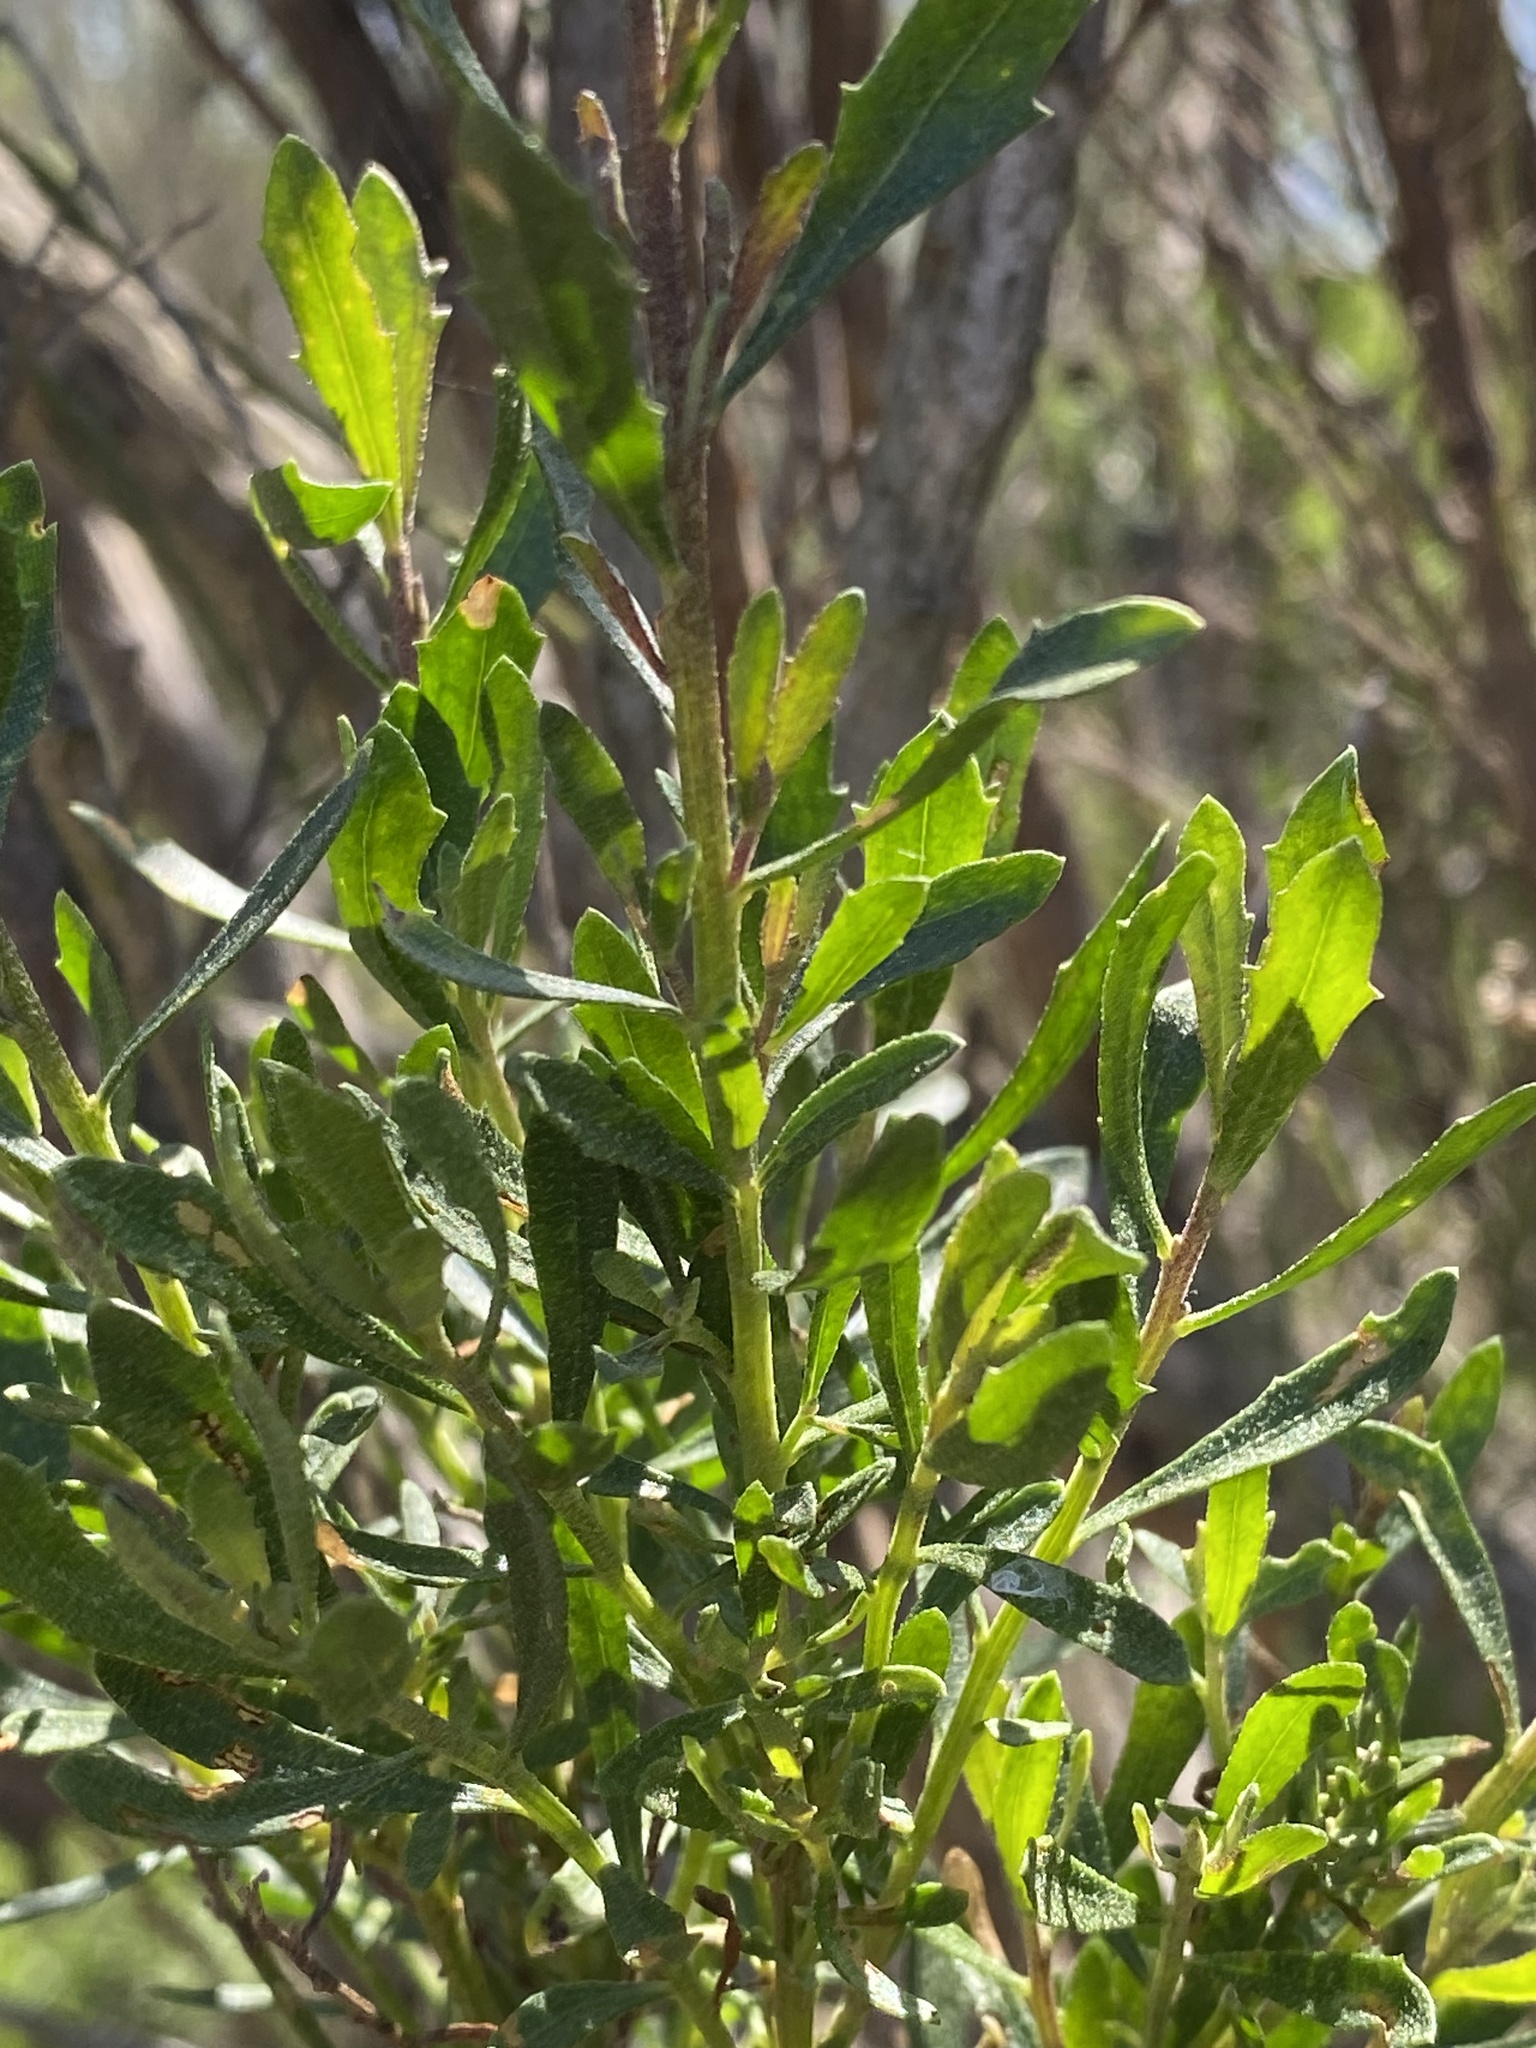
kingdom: Plantae
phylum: Tracheophyta
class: Magnoliopsida
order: Asterales
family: Asteraceae
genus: Baccharis
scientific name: Baccharis sarothroides
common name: Desert-broom
